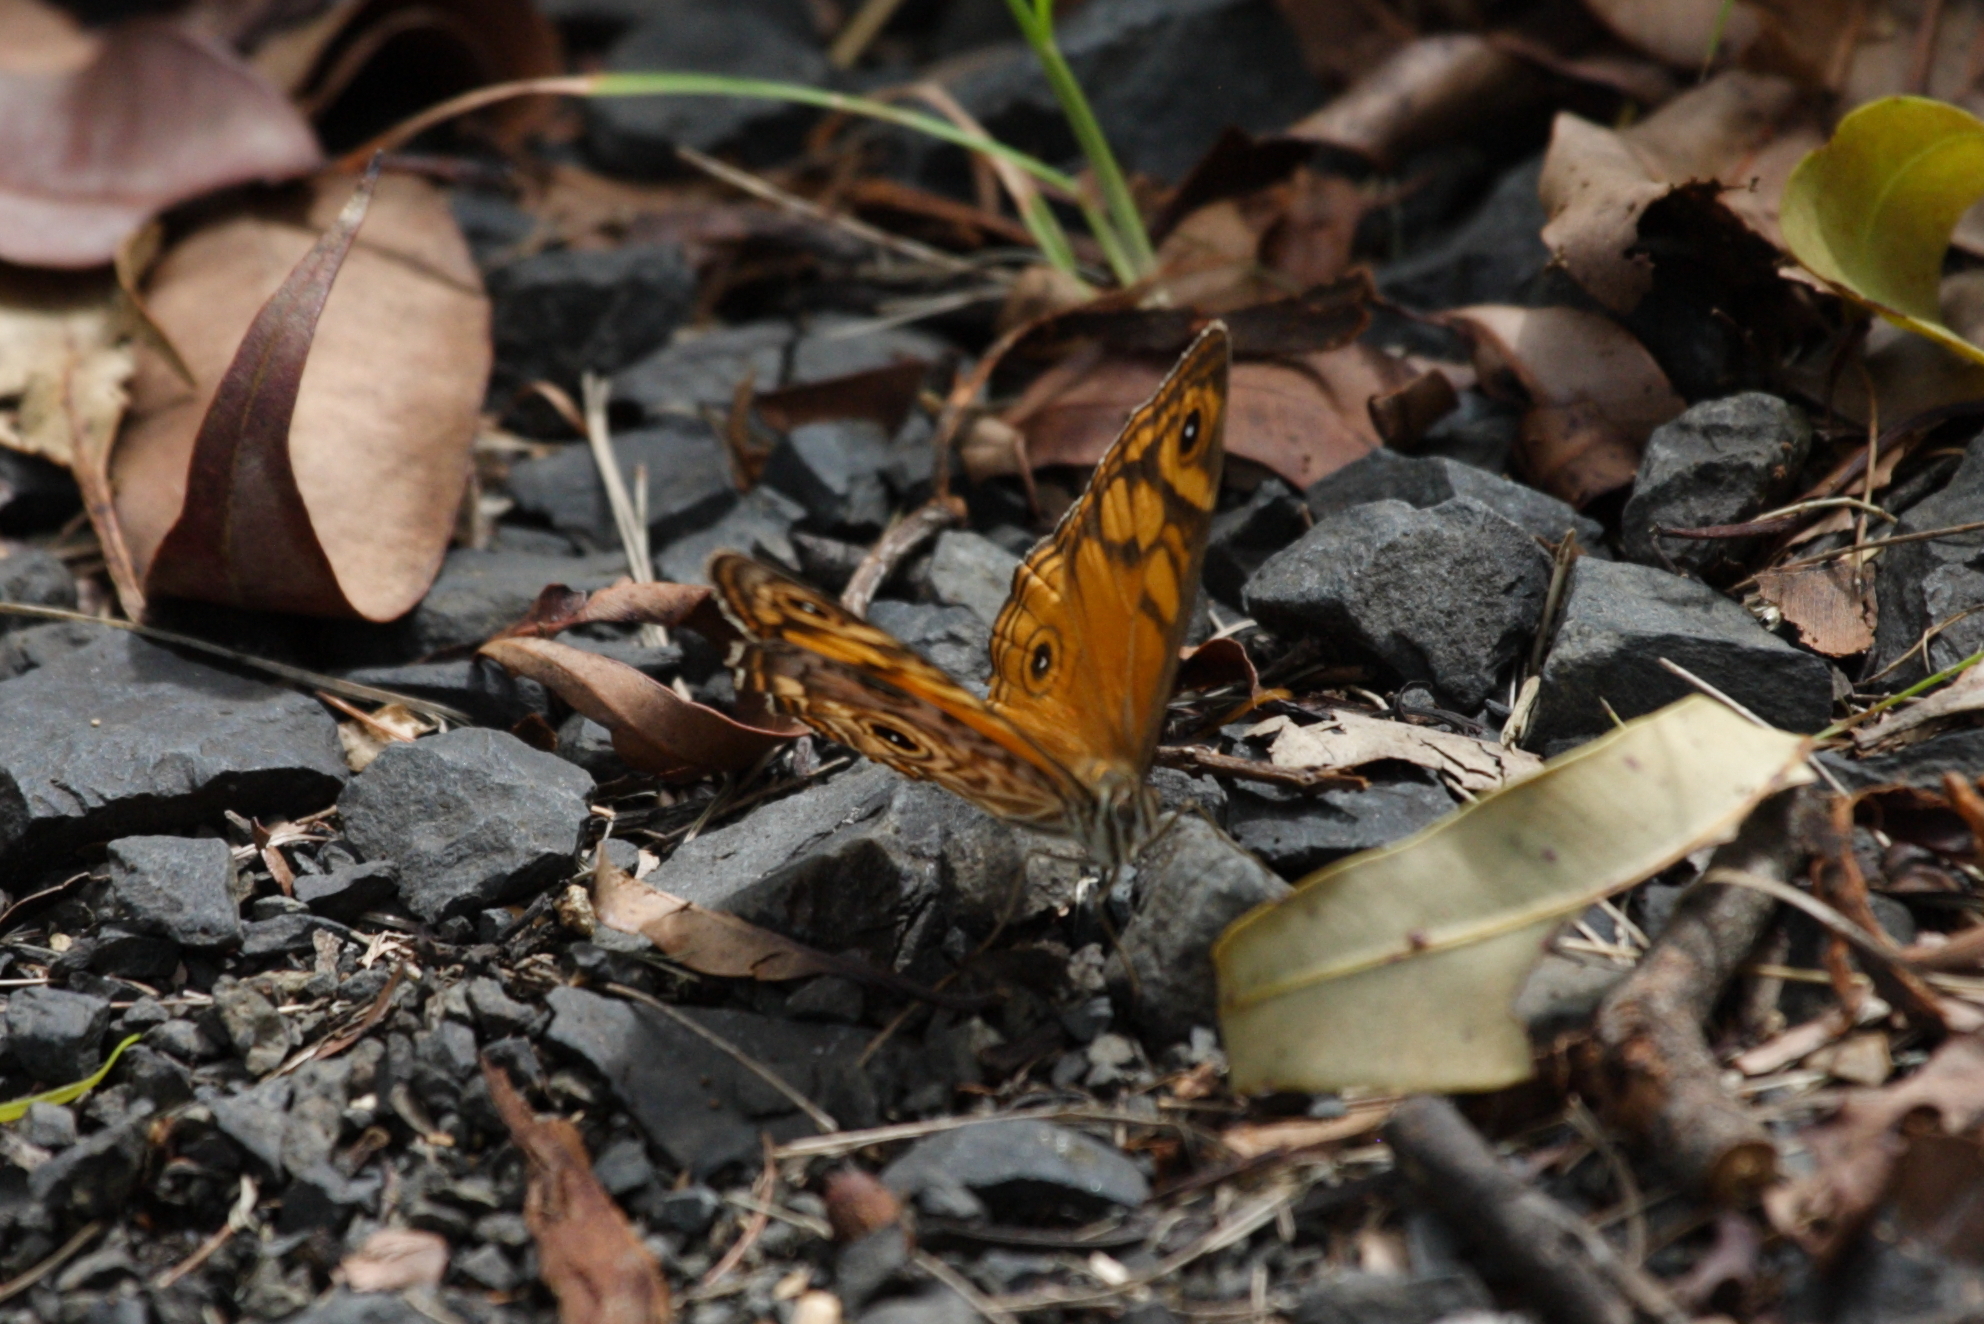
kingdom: Animalia
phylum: Arthropoda
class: Insecta
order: Lepidoptera
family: Nymphalidae
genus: Geitoneura
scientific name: Geitoneura acantha
